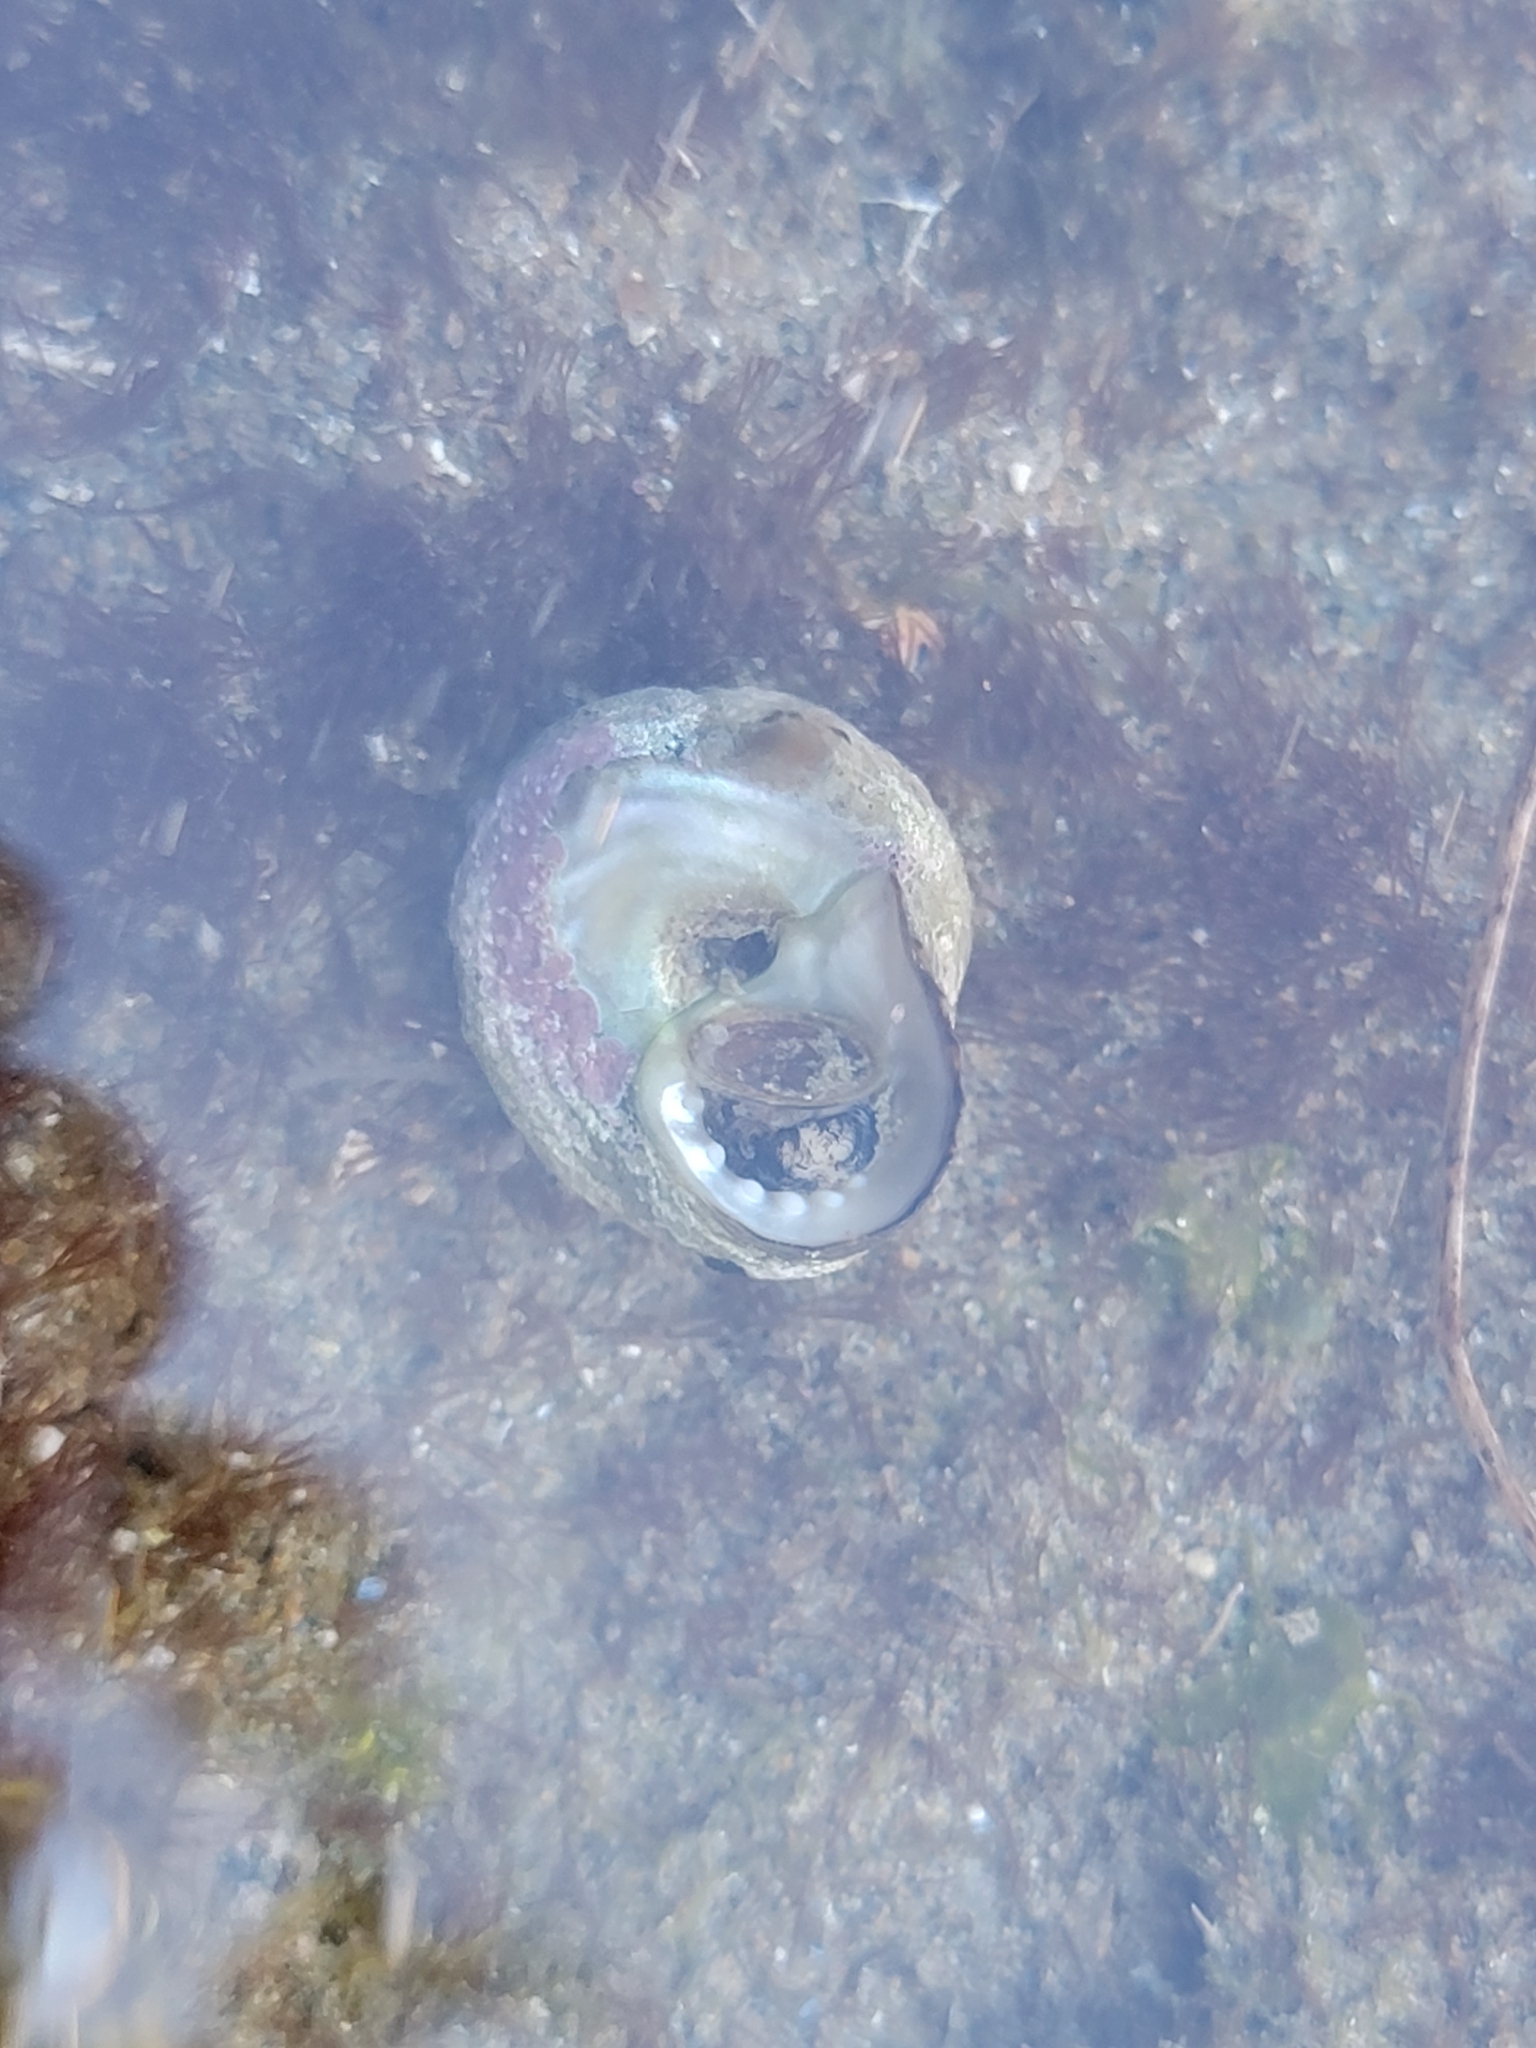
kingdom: Animalia
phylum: Mollusca
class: Gastropoda
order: Trochida
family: Tegulidae
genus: Tegula
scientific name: Tegula eiseni
